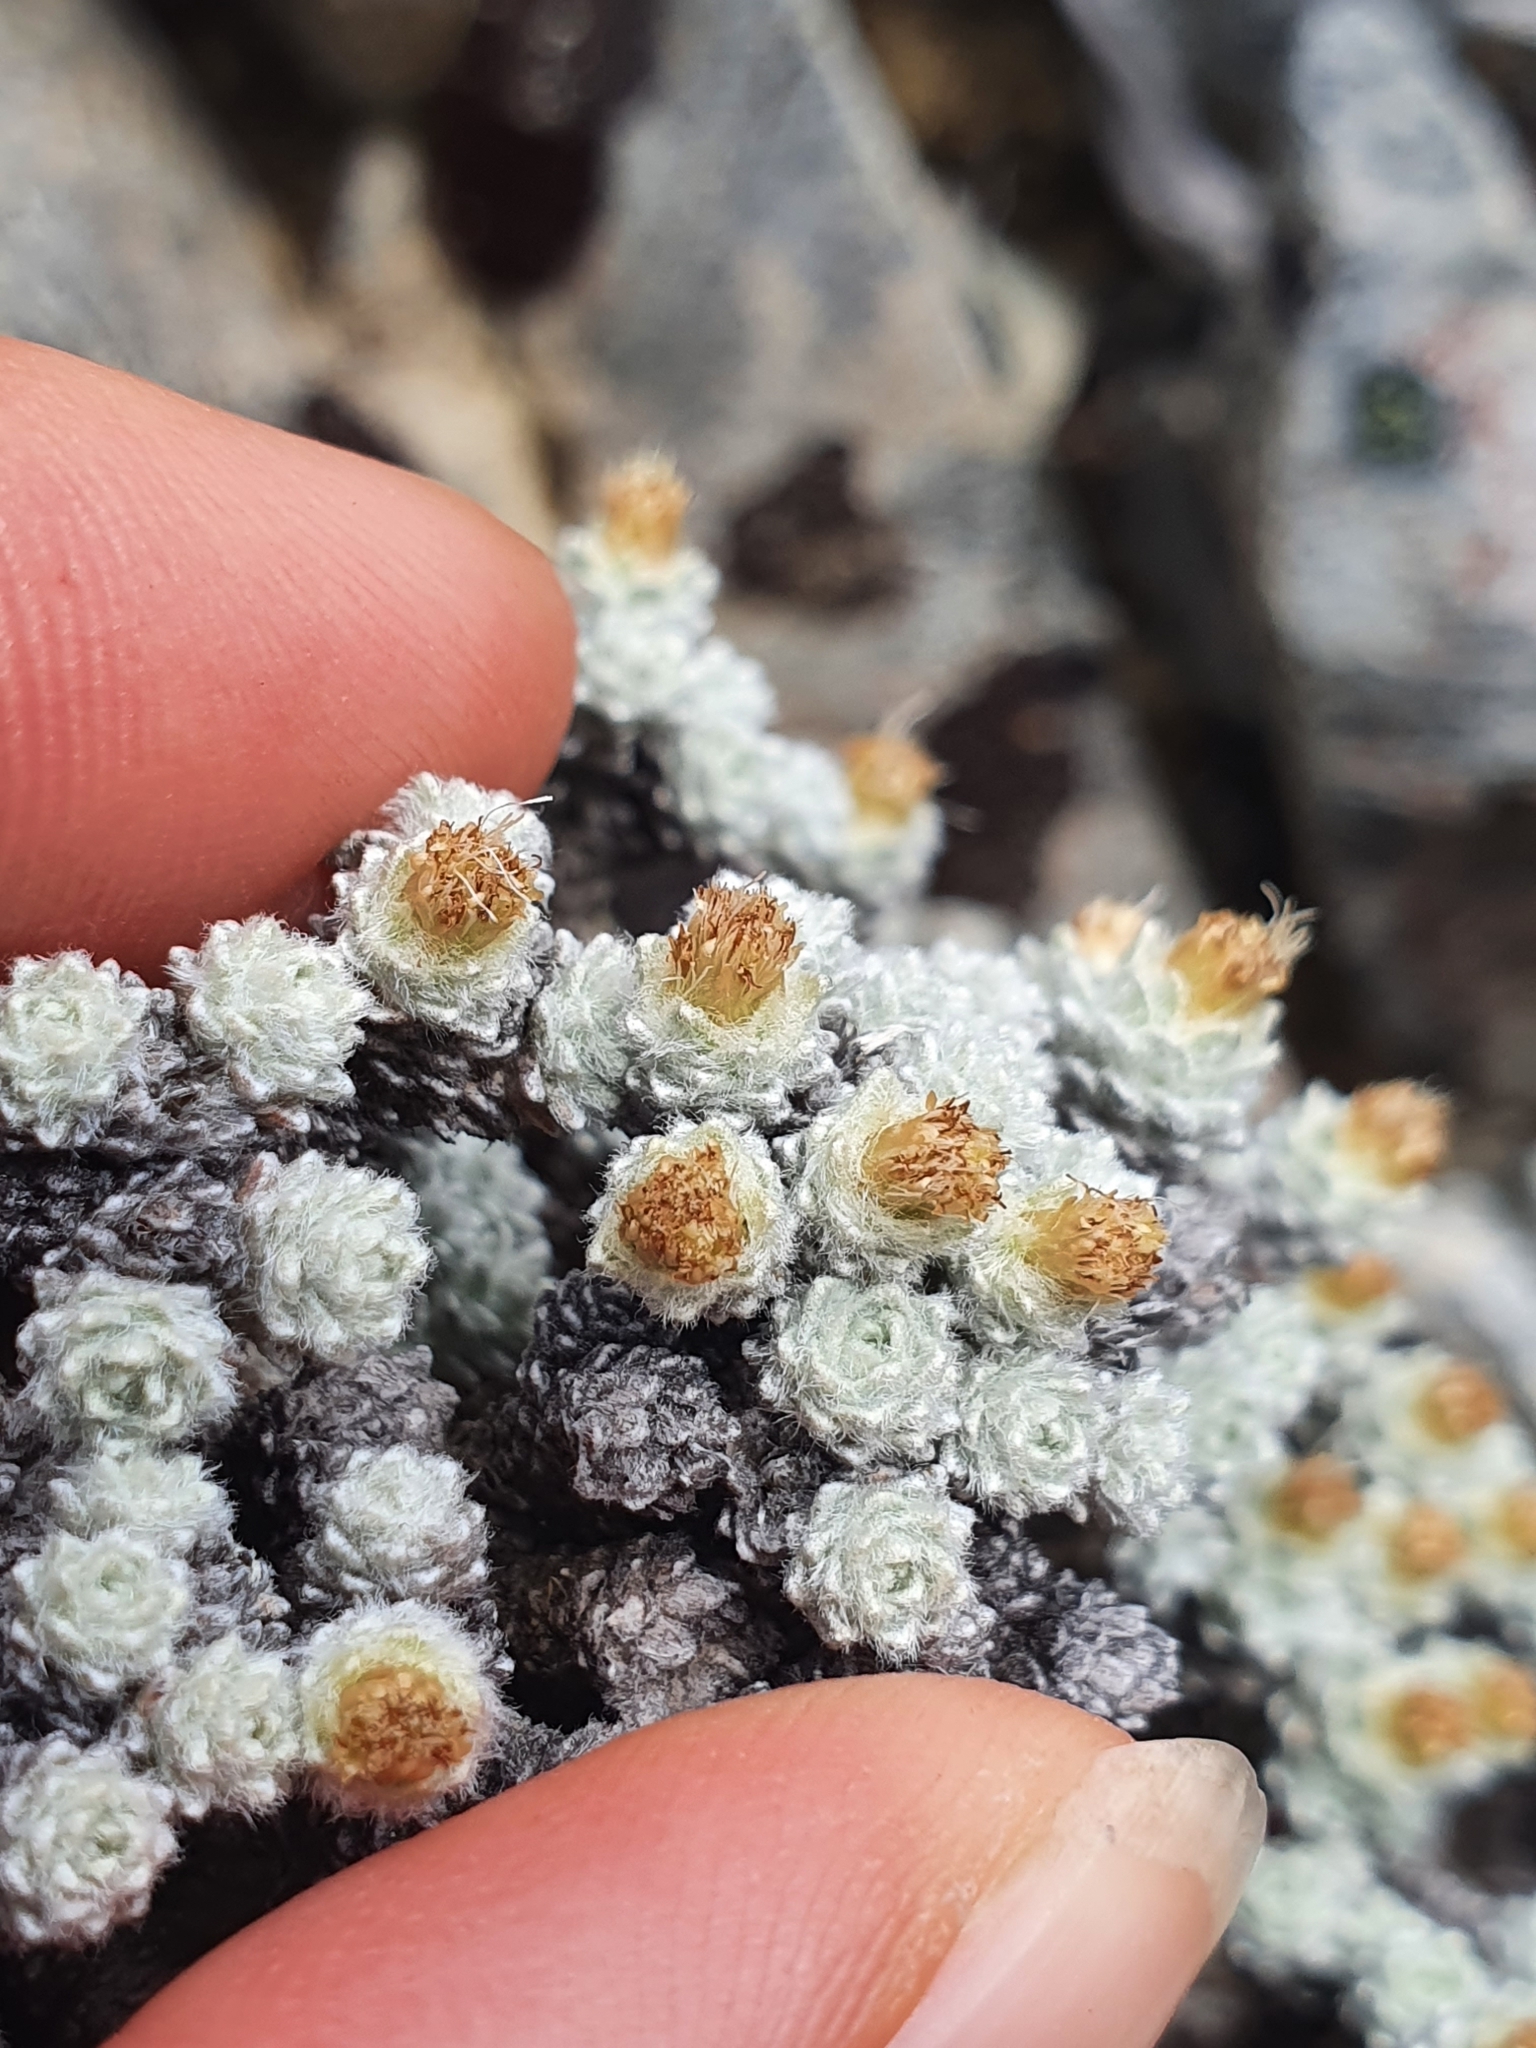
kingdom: Plantae
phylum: Tracheophyta
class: Magnoliopsida
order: Asterales
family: Asteraceae
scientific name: Asteraceae
